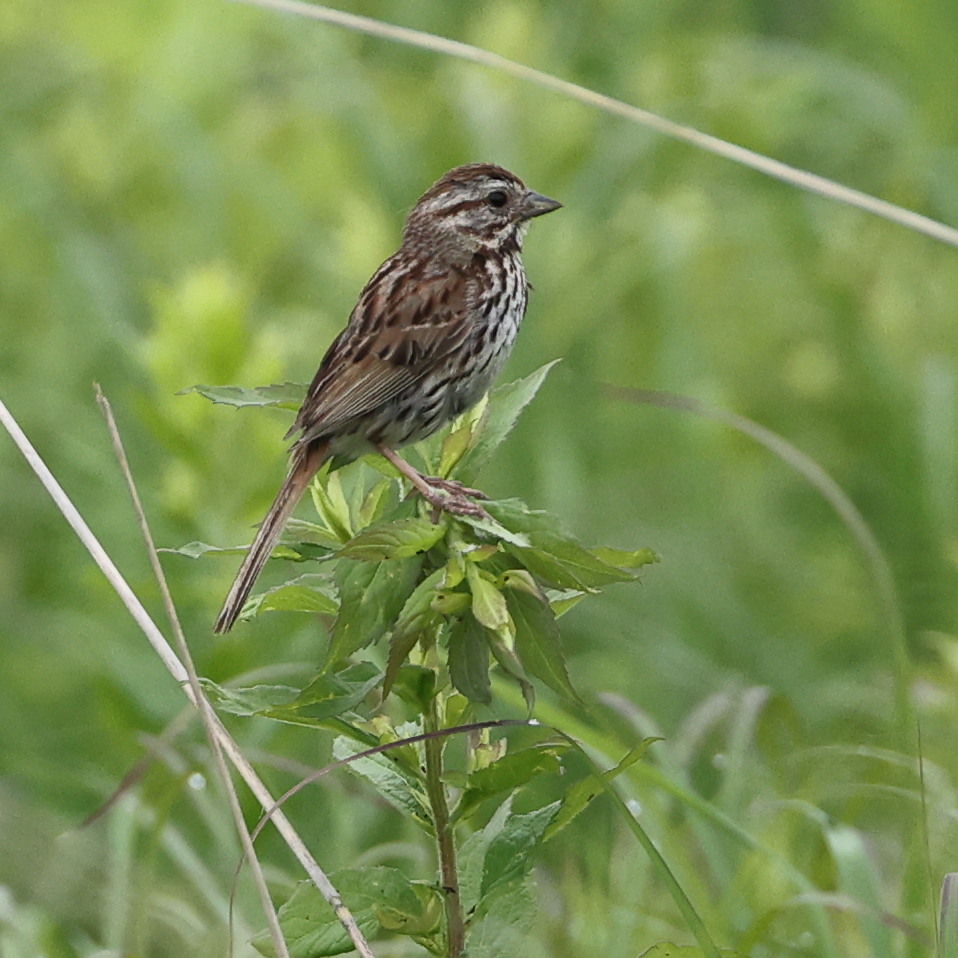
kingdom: Animalia
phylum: Chordata
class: Aves
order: Passeriformes
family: Passerellidae
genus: Melospiza
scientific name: Melospiza melodia
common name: Song sparrow
